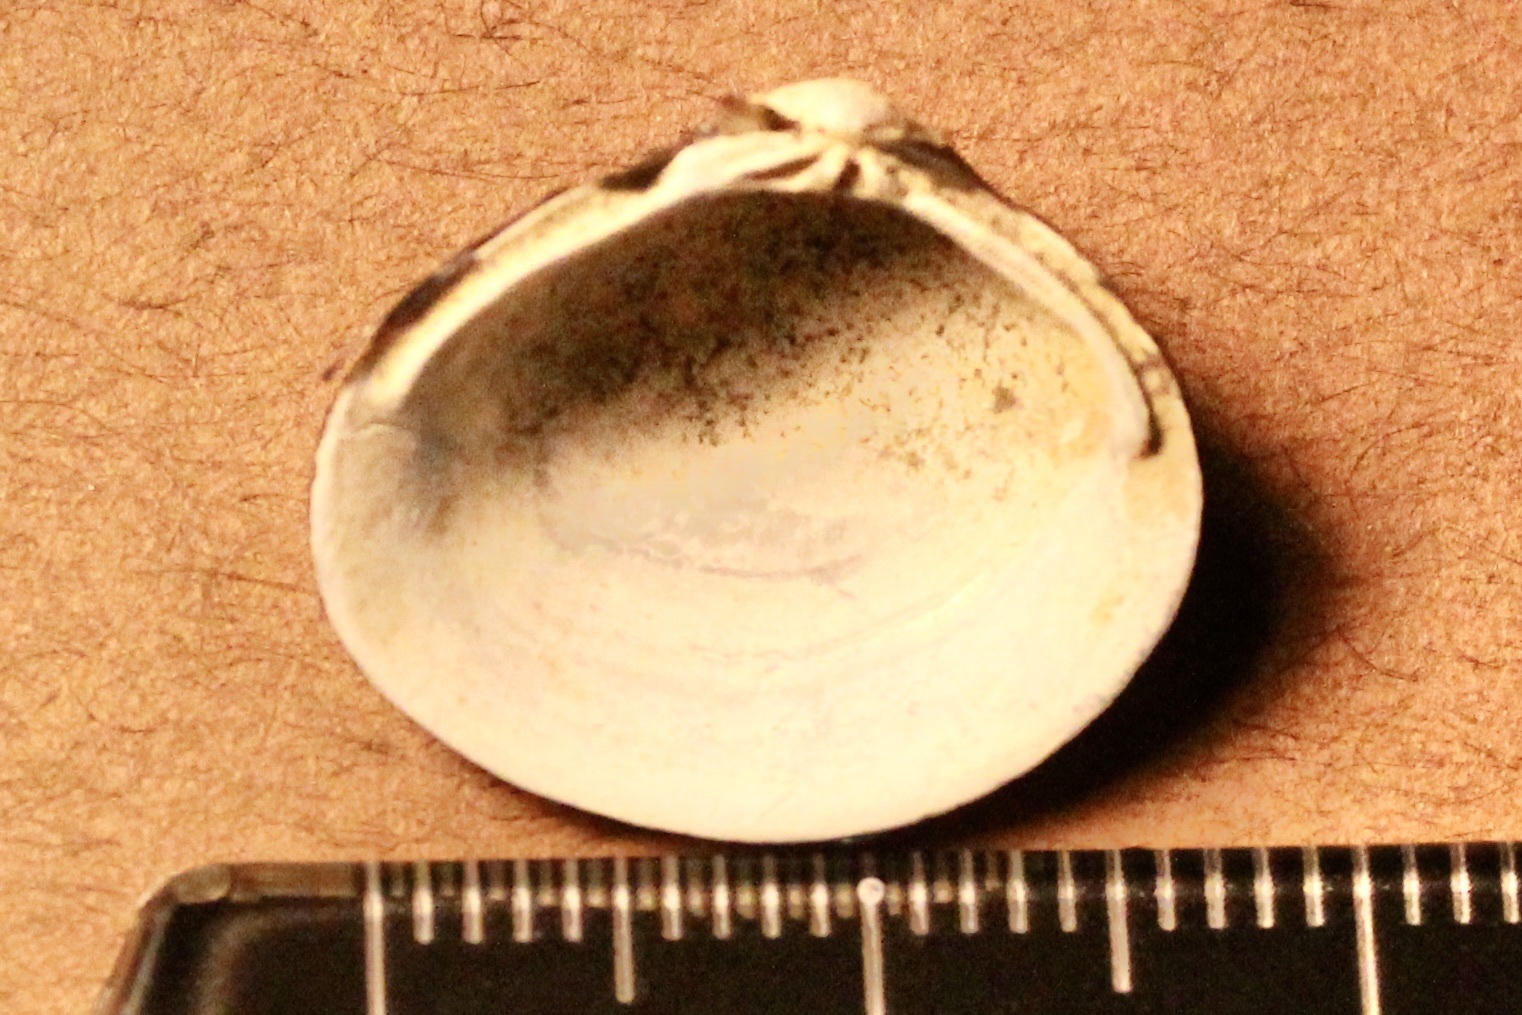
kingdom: Animalia
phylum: Mollusca
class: Bivalvia
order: Venerida
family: Cyrenidae
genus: Corbicula
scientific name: Corbicula fluminea
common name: Asian clam
